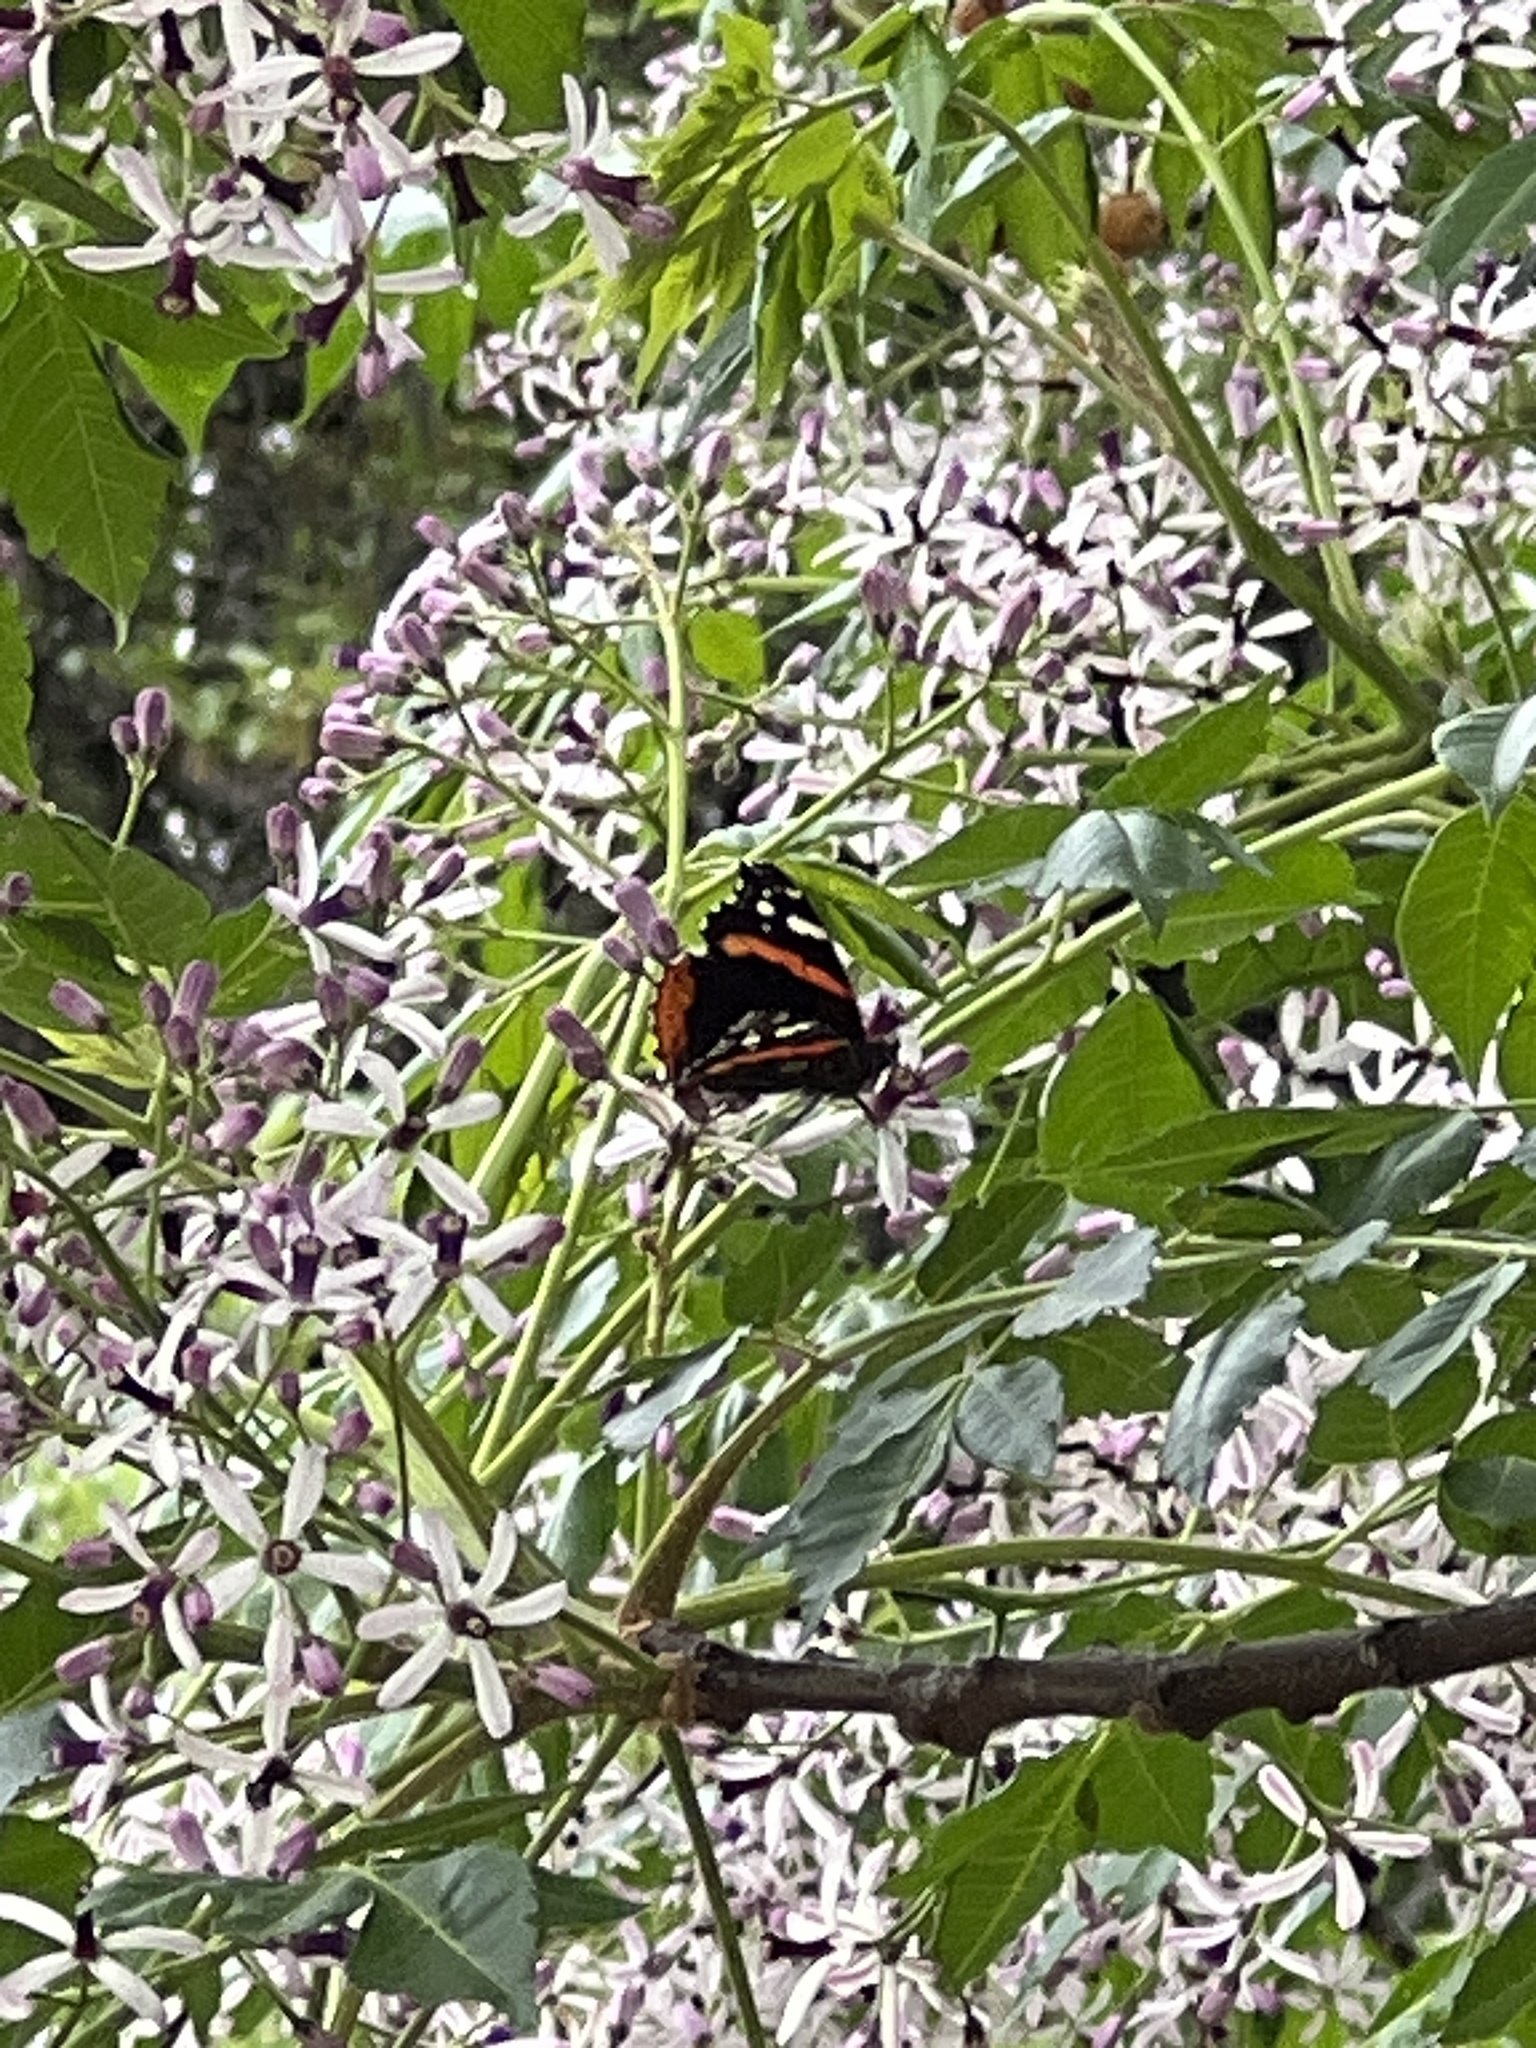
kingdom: Animalia
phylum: Arthropoda
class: Insecta
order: Lepidoptera
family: Nymphalidae
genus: Vanessa
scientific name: Vanessa atalanta
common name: Red admiral
